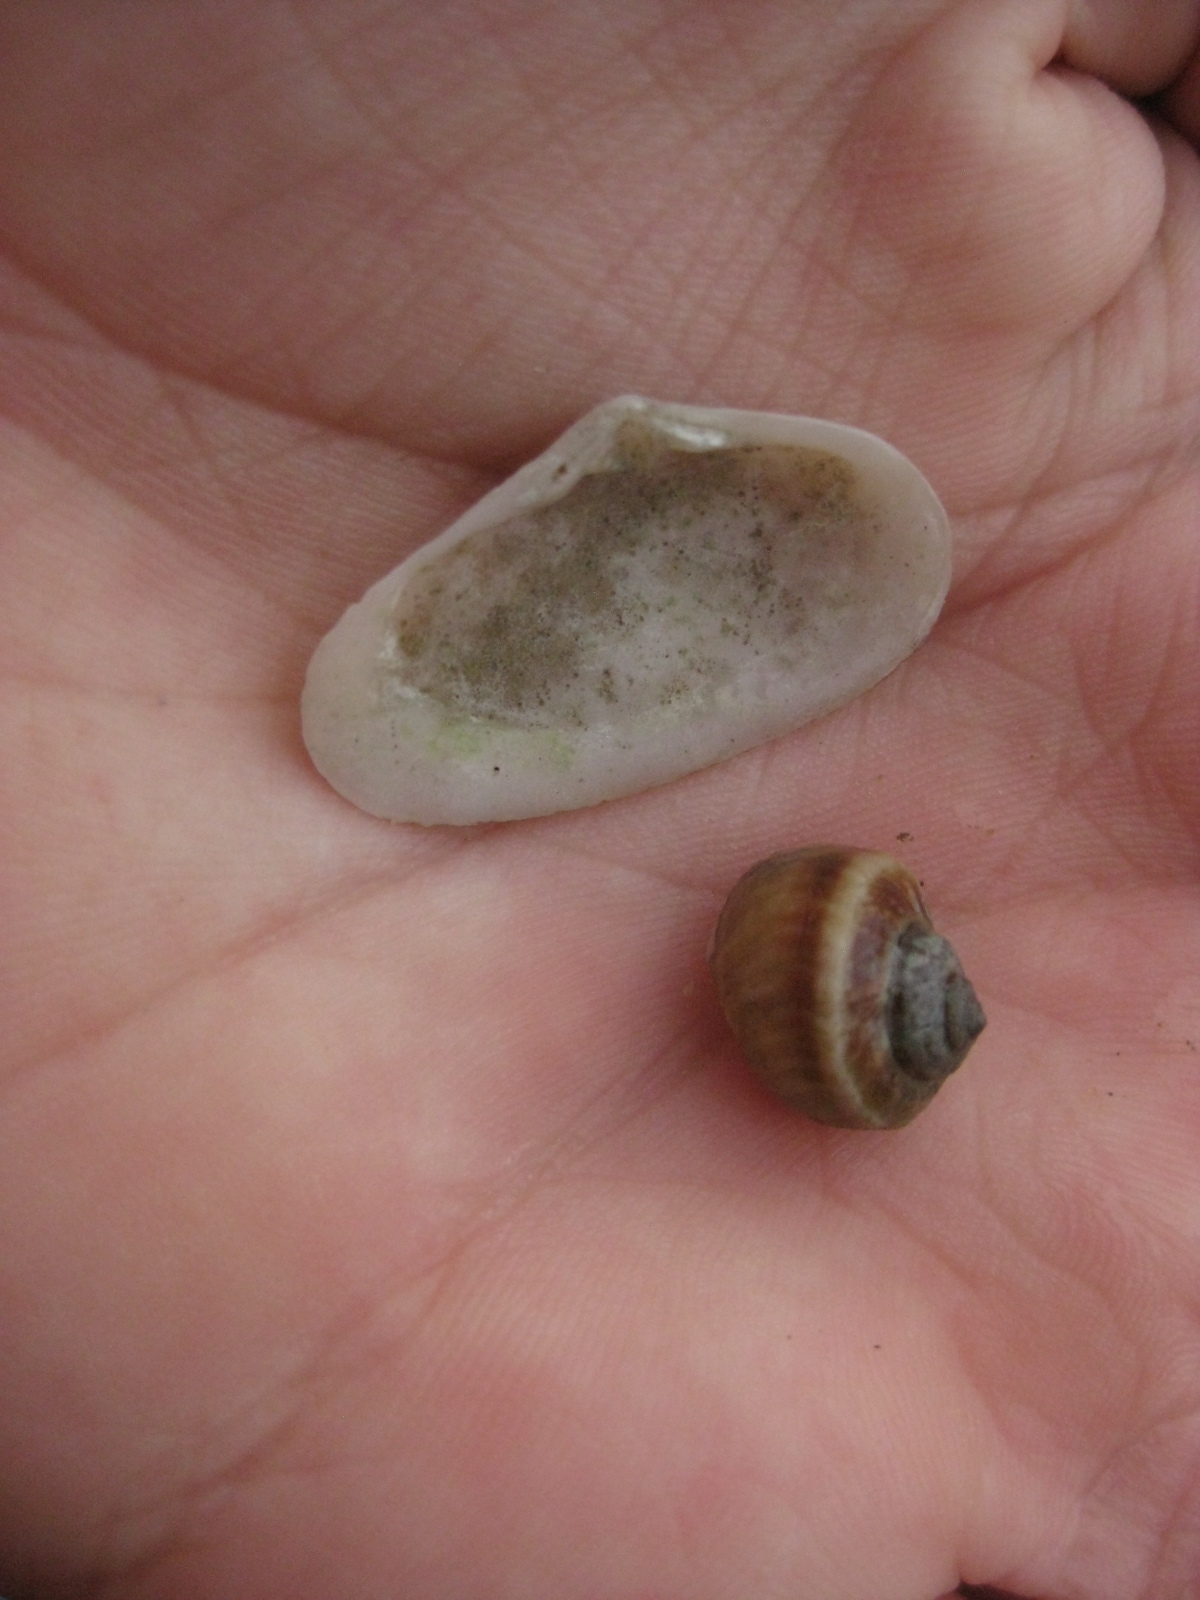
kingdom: Animalia
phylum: Mollusca
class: Bivalvia
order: Venerida
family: Mesodesmatidae
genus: Paphies
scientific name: Paphies australis
